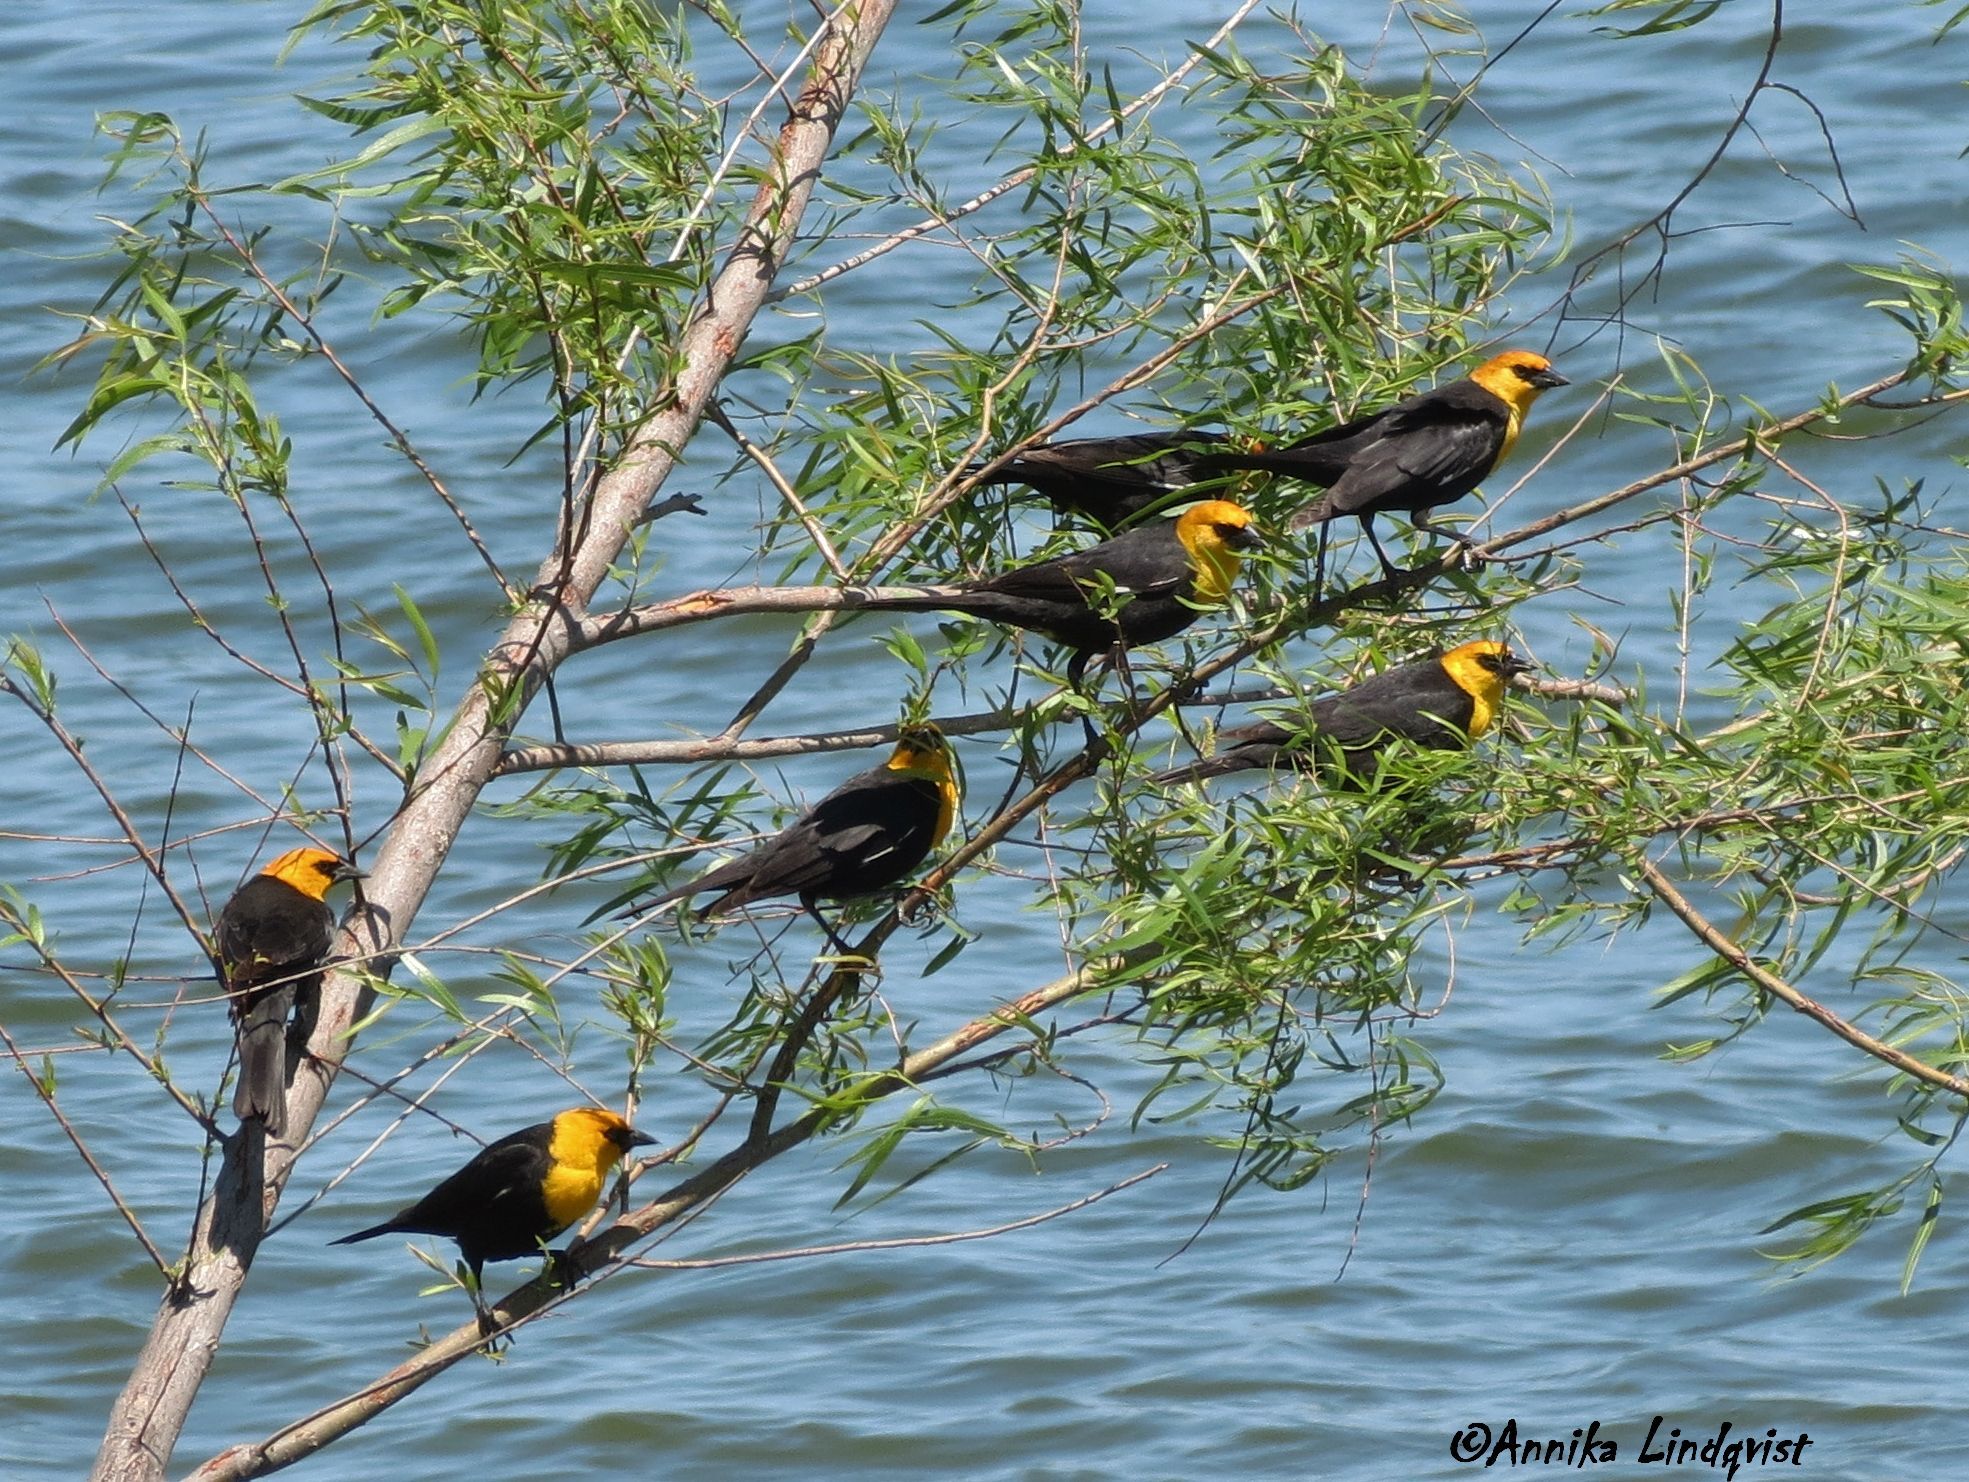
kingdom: Animalia
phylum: Chordata
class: Aves
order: Passeriformes
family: Icteridae
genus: Xanthocephalus
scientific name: Xanthocephalus xanthocephalus
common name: Yellow-headed blackbird
